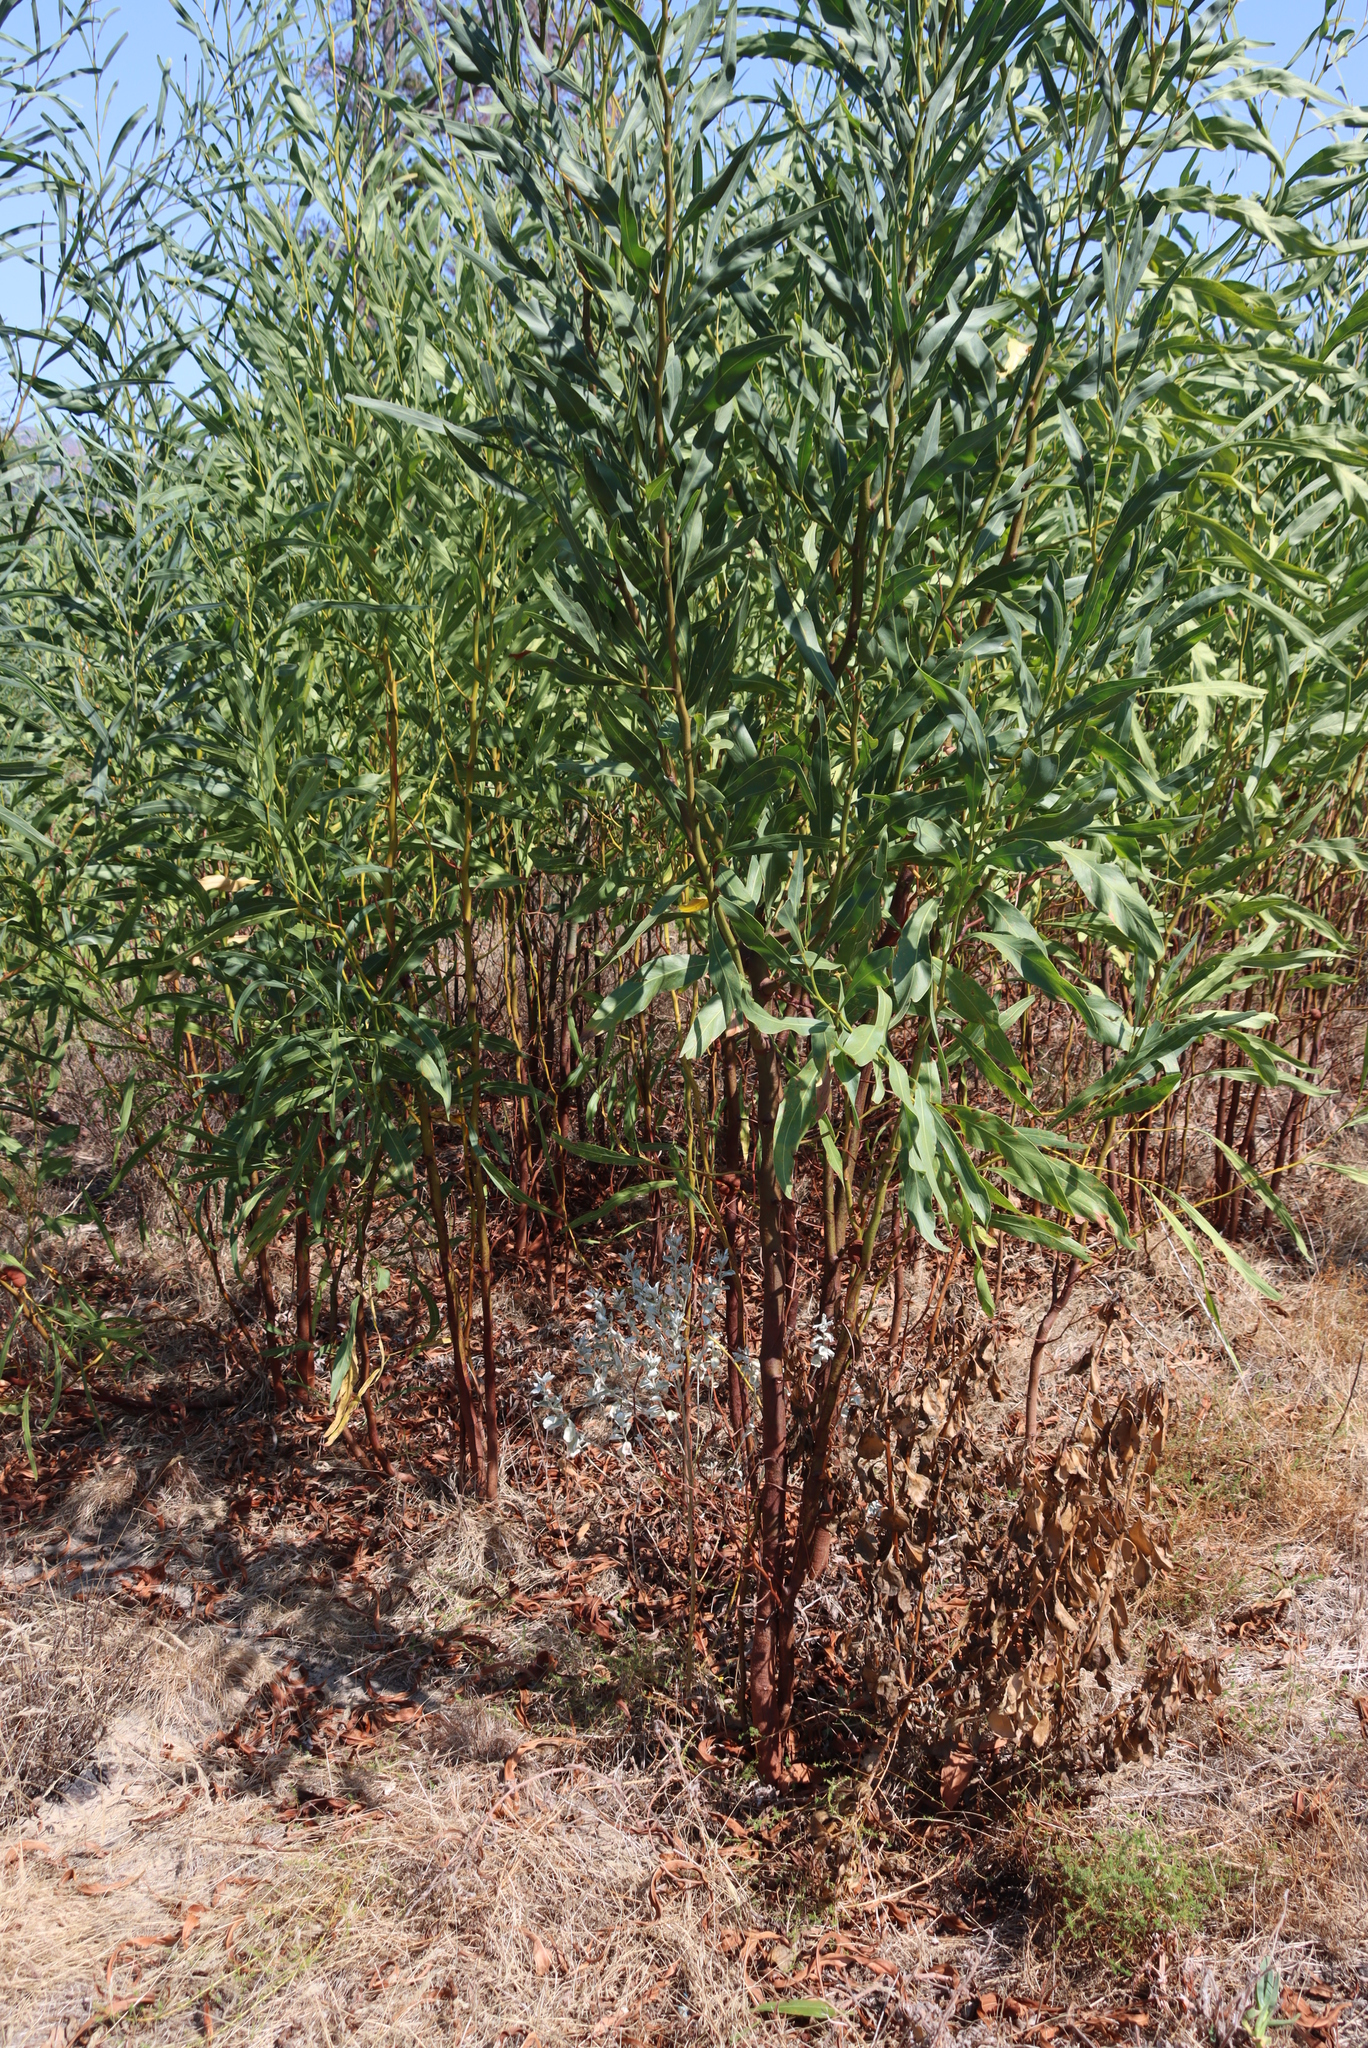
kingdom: Plantae
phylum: Tracheophyta
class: Magnoliopsida
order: Fabales
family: Fabaceae
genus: Acacia
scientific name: Acacia saligna
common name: Orange wattle
